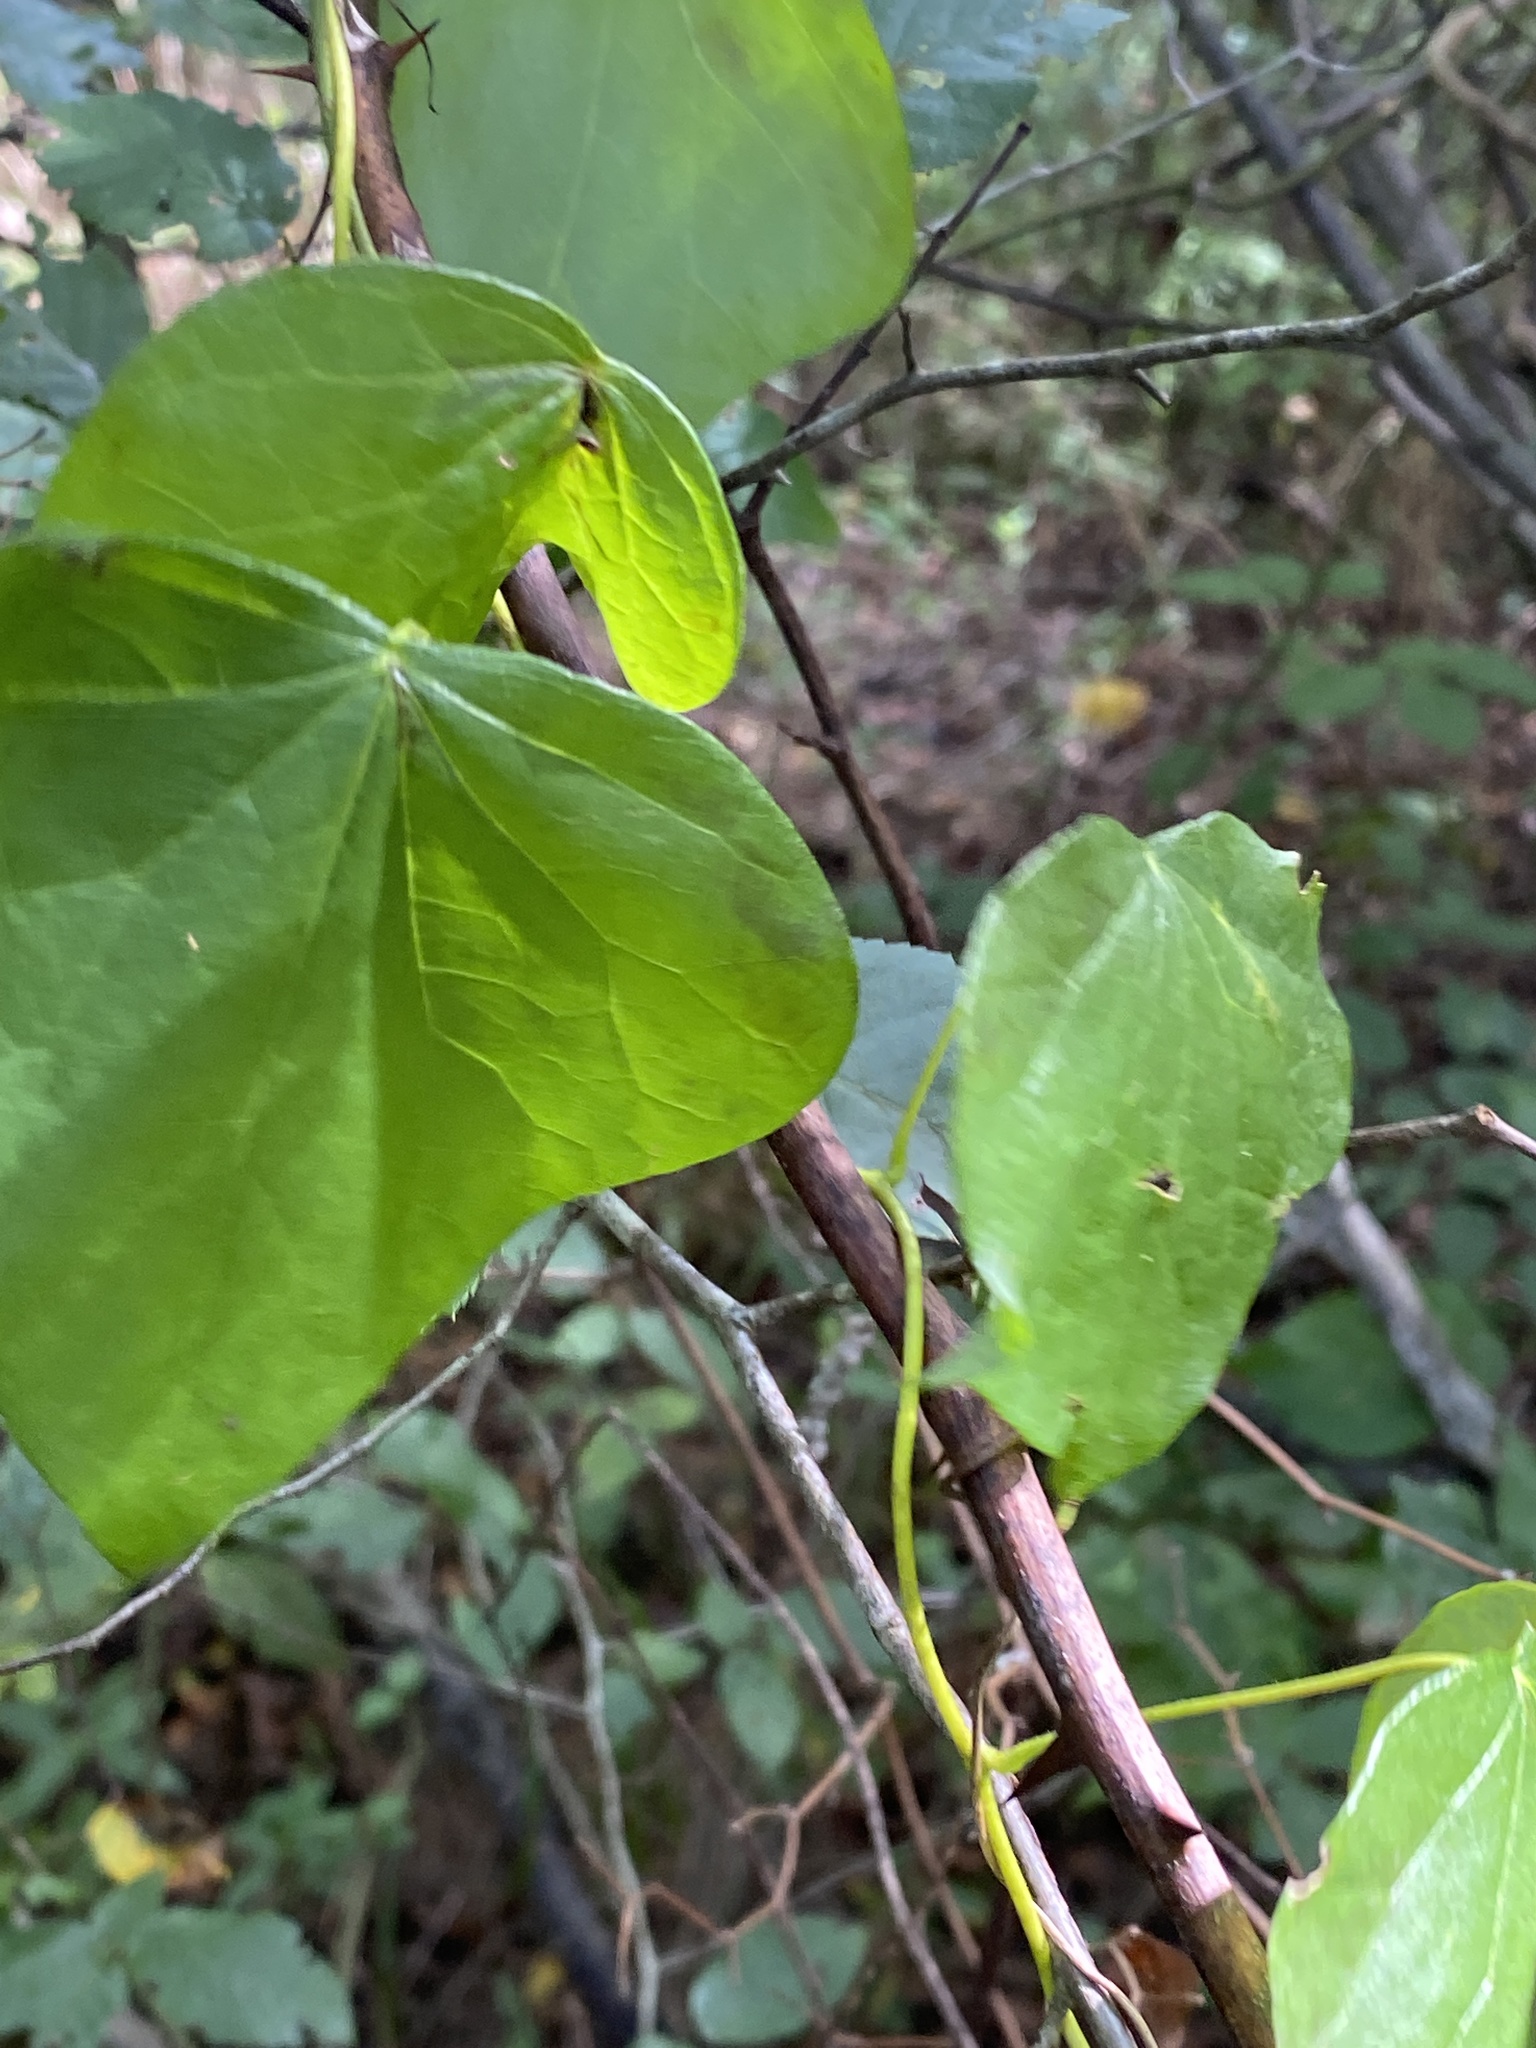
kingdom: Plantae
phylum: Tracheophyta
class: Magnoliopsida
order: Ranunculales
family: Menispermaceae
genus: Menispermum
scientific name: Menispermum canadense
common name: Moonseed
